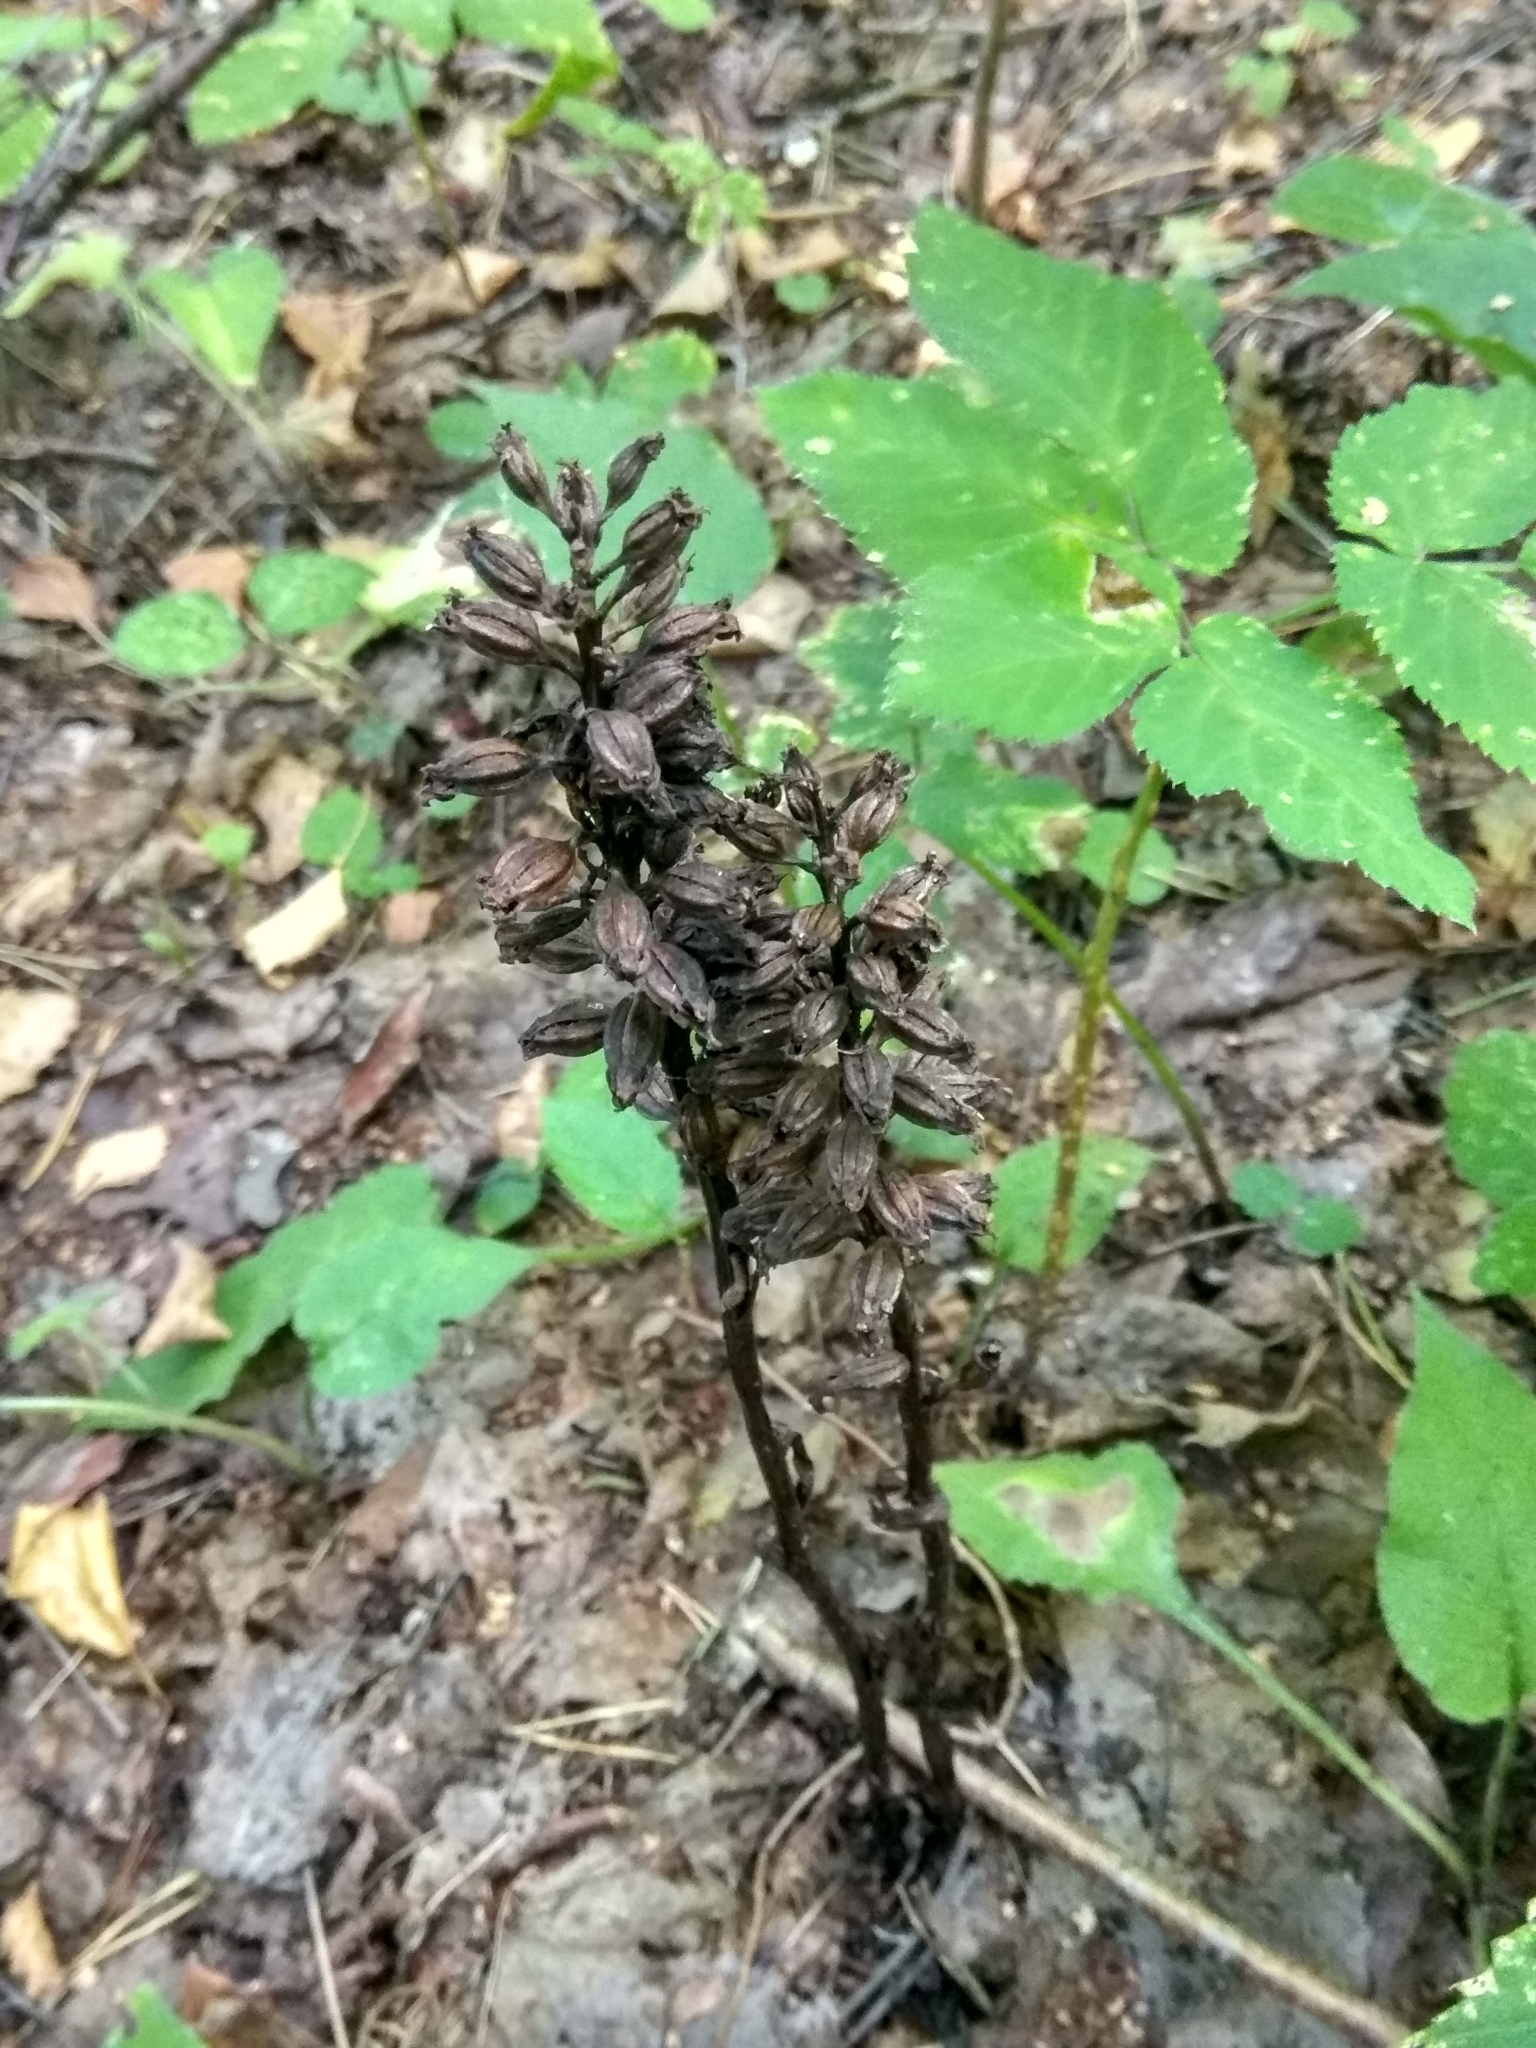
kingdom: Plantae
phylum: Tracheophyta
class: Liliopsida
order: Asparagales
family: Orchidaceae
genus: Neottia
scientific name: Neottia nidus-avis
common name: Bird's-nest orchid
